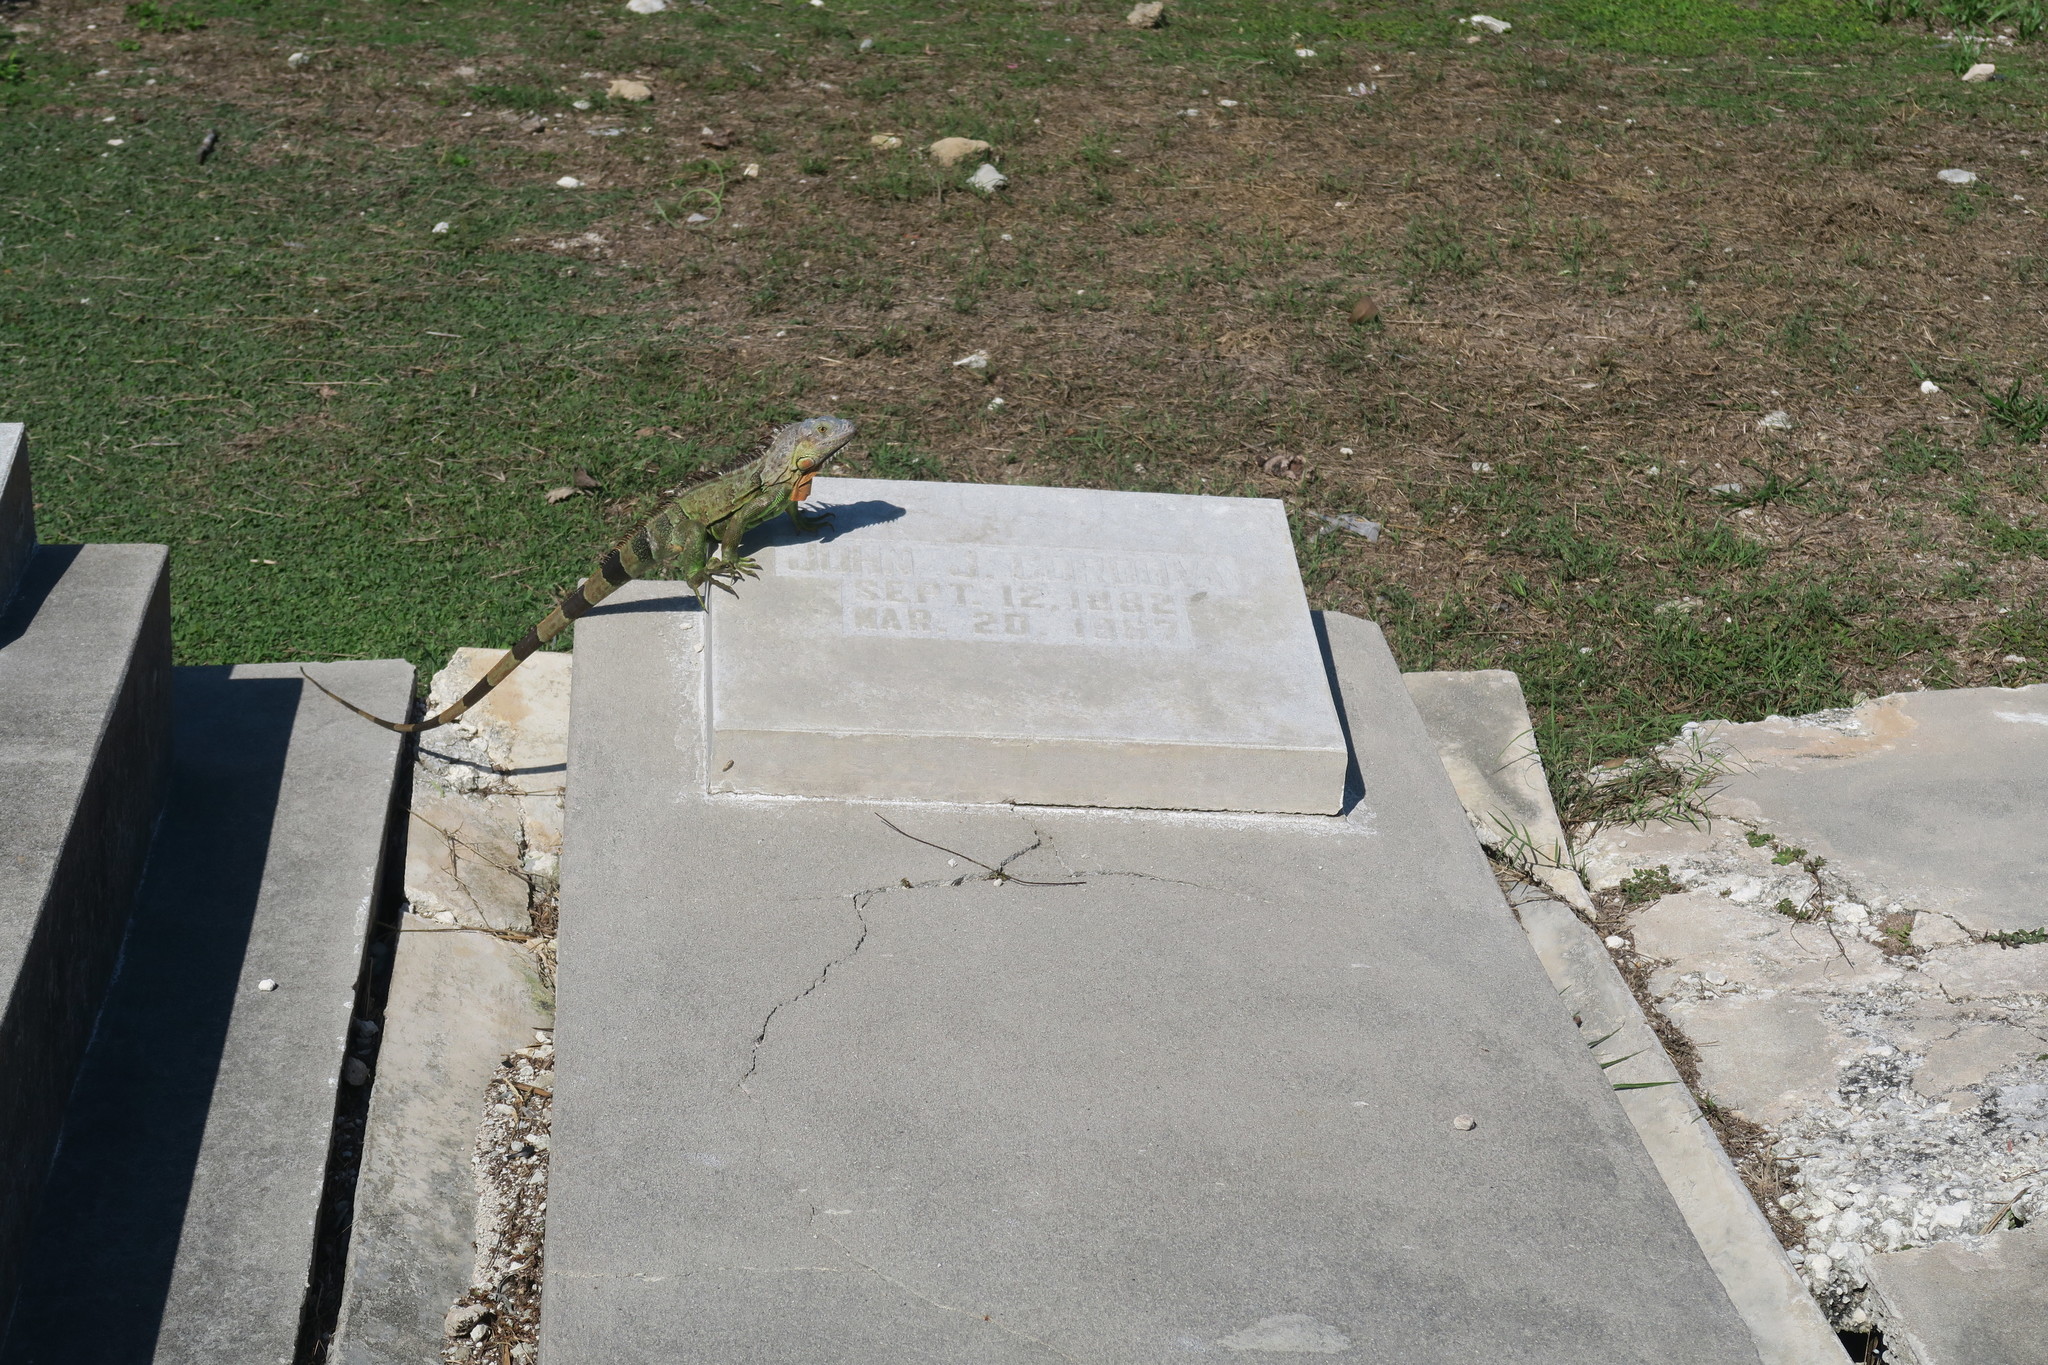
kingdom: Animalia
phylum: Chordata
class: Squamata
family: Iguanidae
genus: Iguana
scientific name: Iguana iguana
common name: Green iguana
